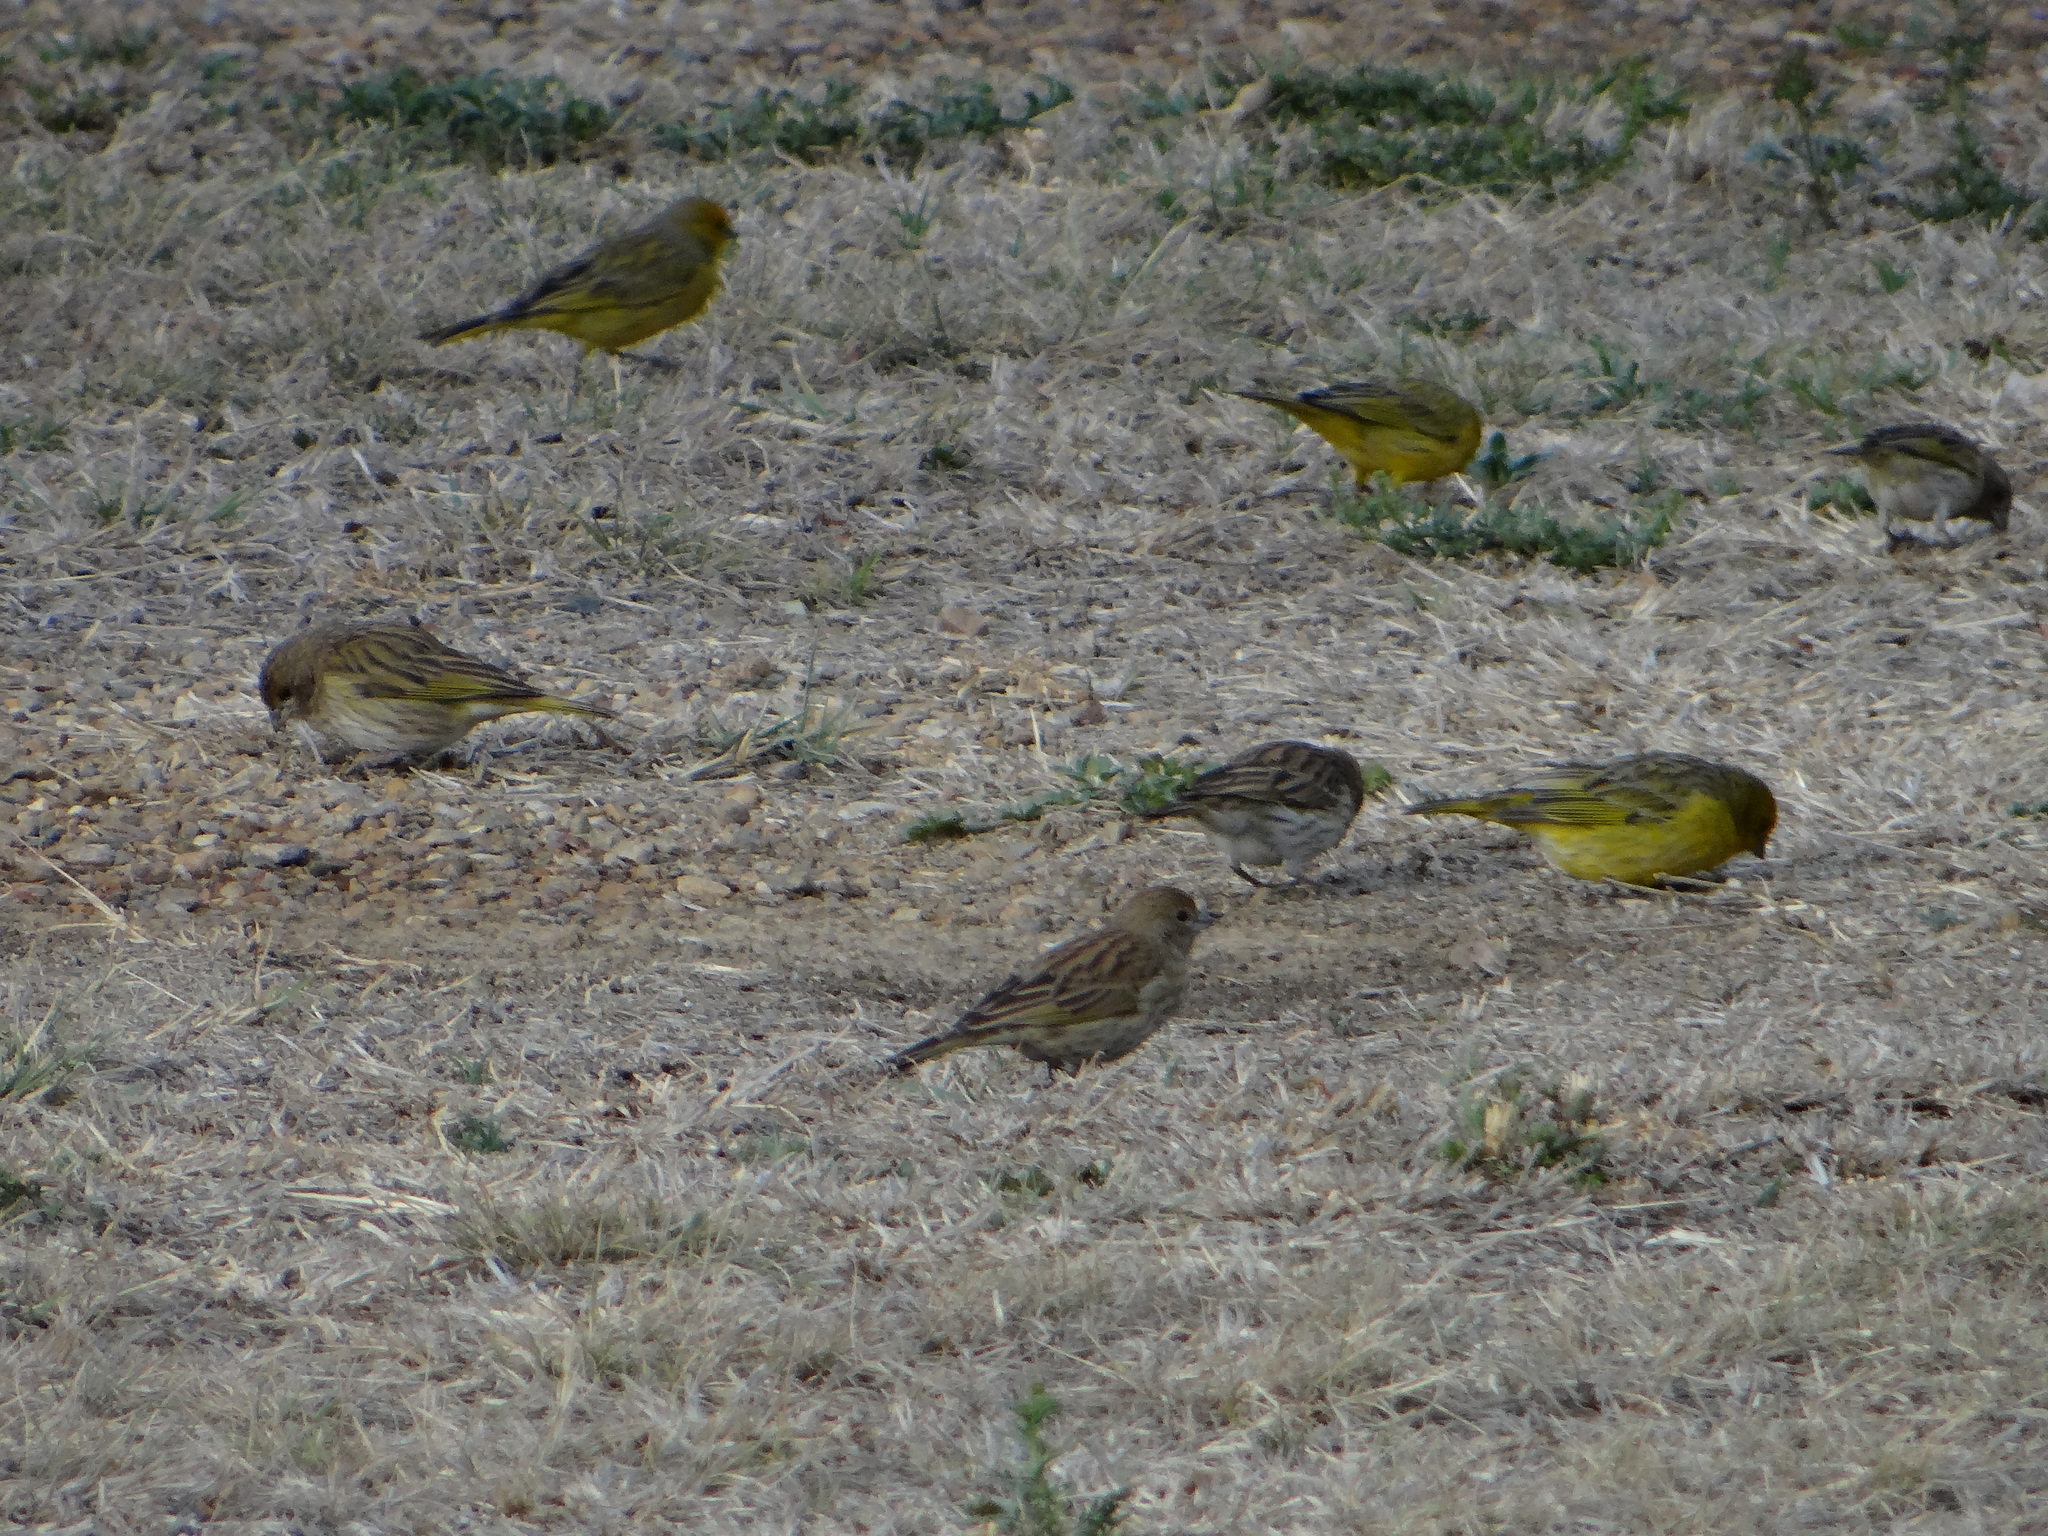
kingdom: Animalia
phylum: Chordata
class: Aves
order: Passeriformes
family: Thraupidae
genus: Sicalis
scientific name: Sicalis flaveola
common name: Saffron finch
